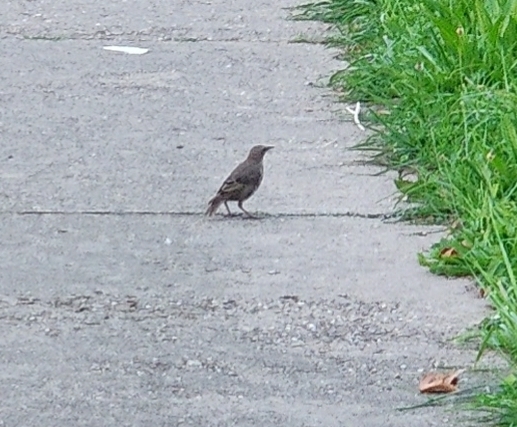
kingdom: Animalia
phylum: Chordata
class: Aves
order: Passeriformes
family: Sturnidae
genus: Sturnus
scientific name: Sturnus vulgaris
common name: Common starling
